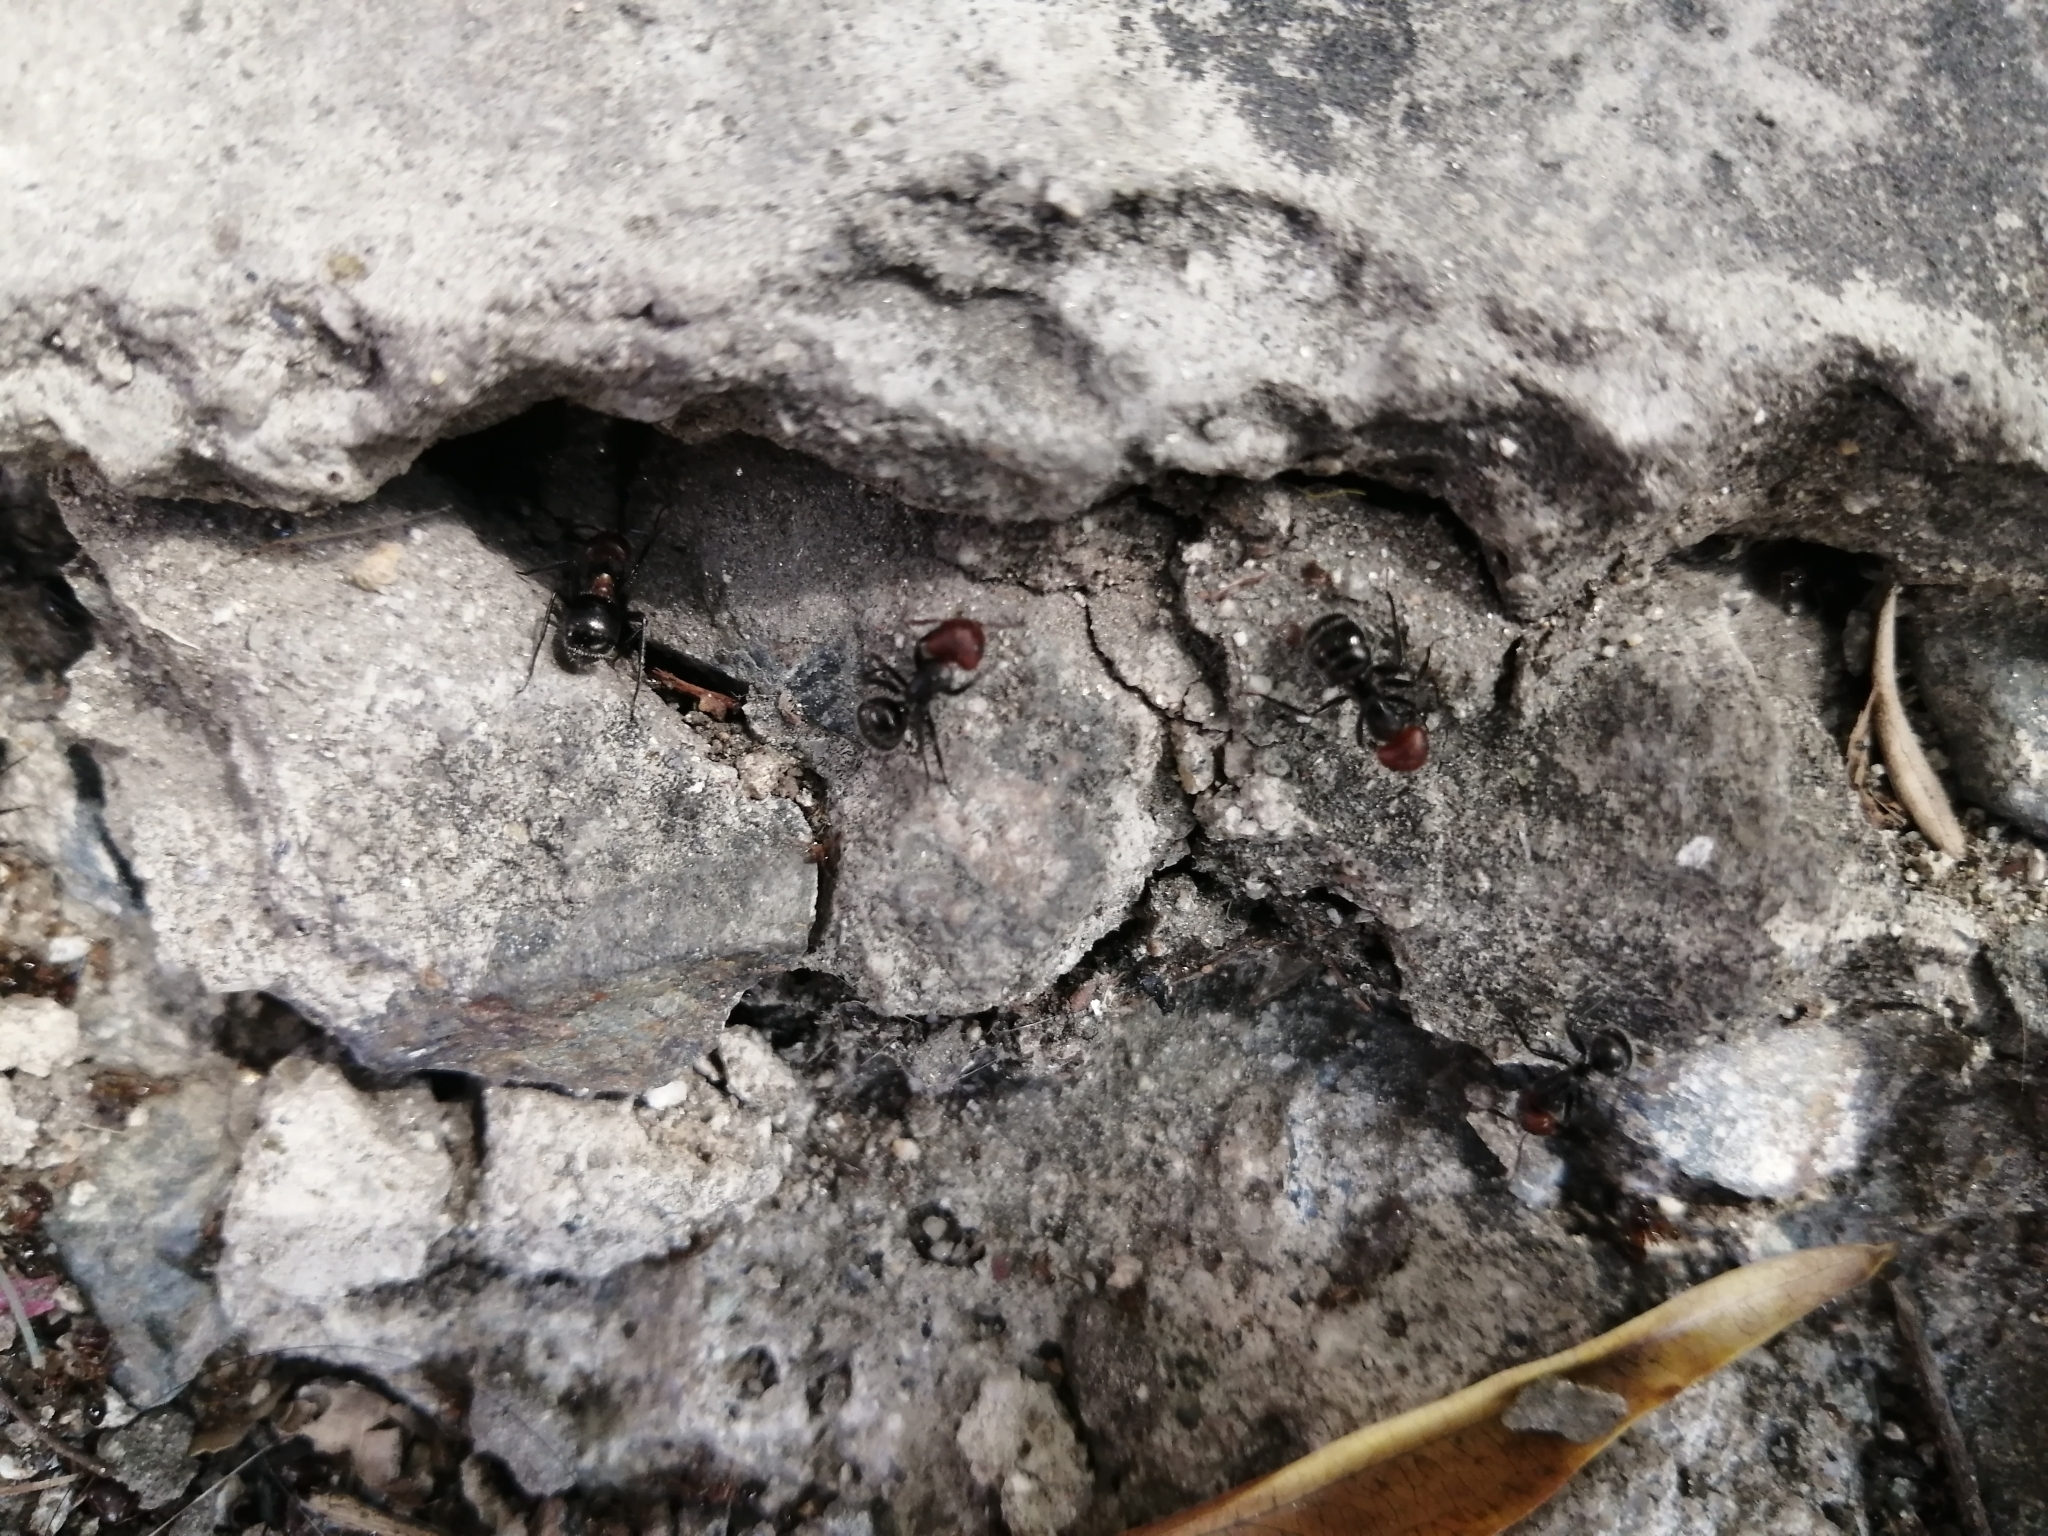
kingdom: Animalia
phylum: Arthropoda
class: Insecta
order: Hymenoptera
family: Formicidae
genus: Camponotus
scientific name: Camponotus lindigi
